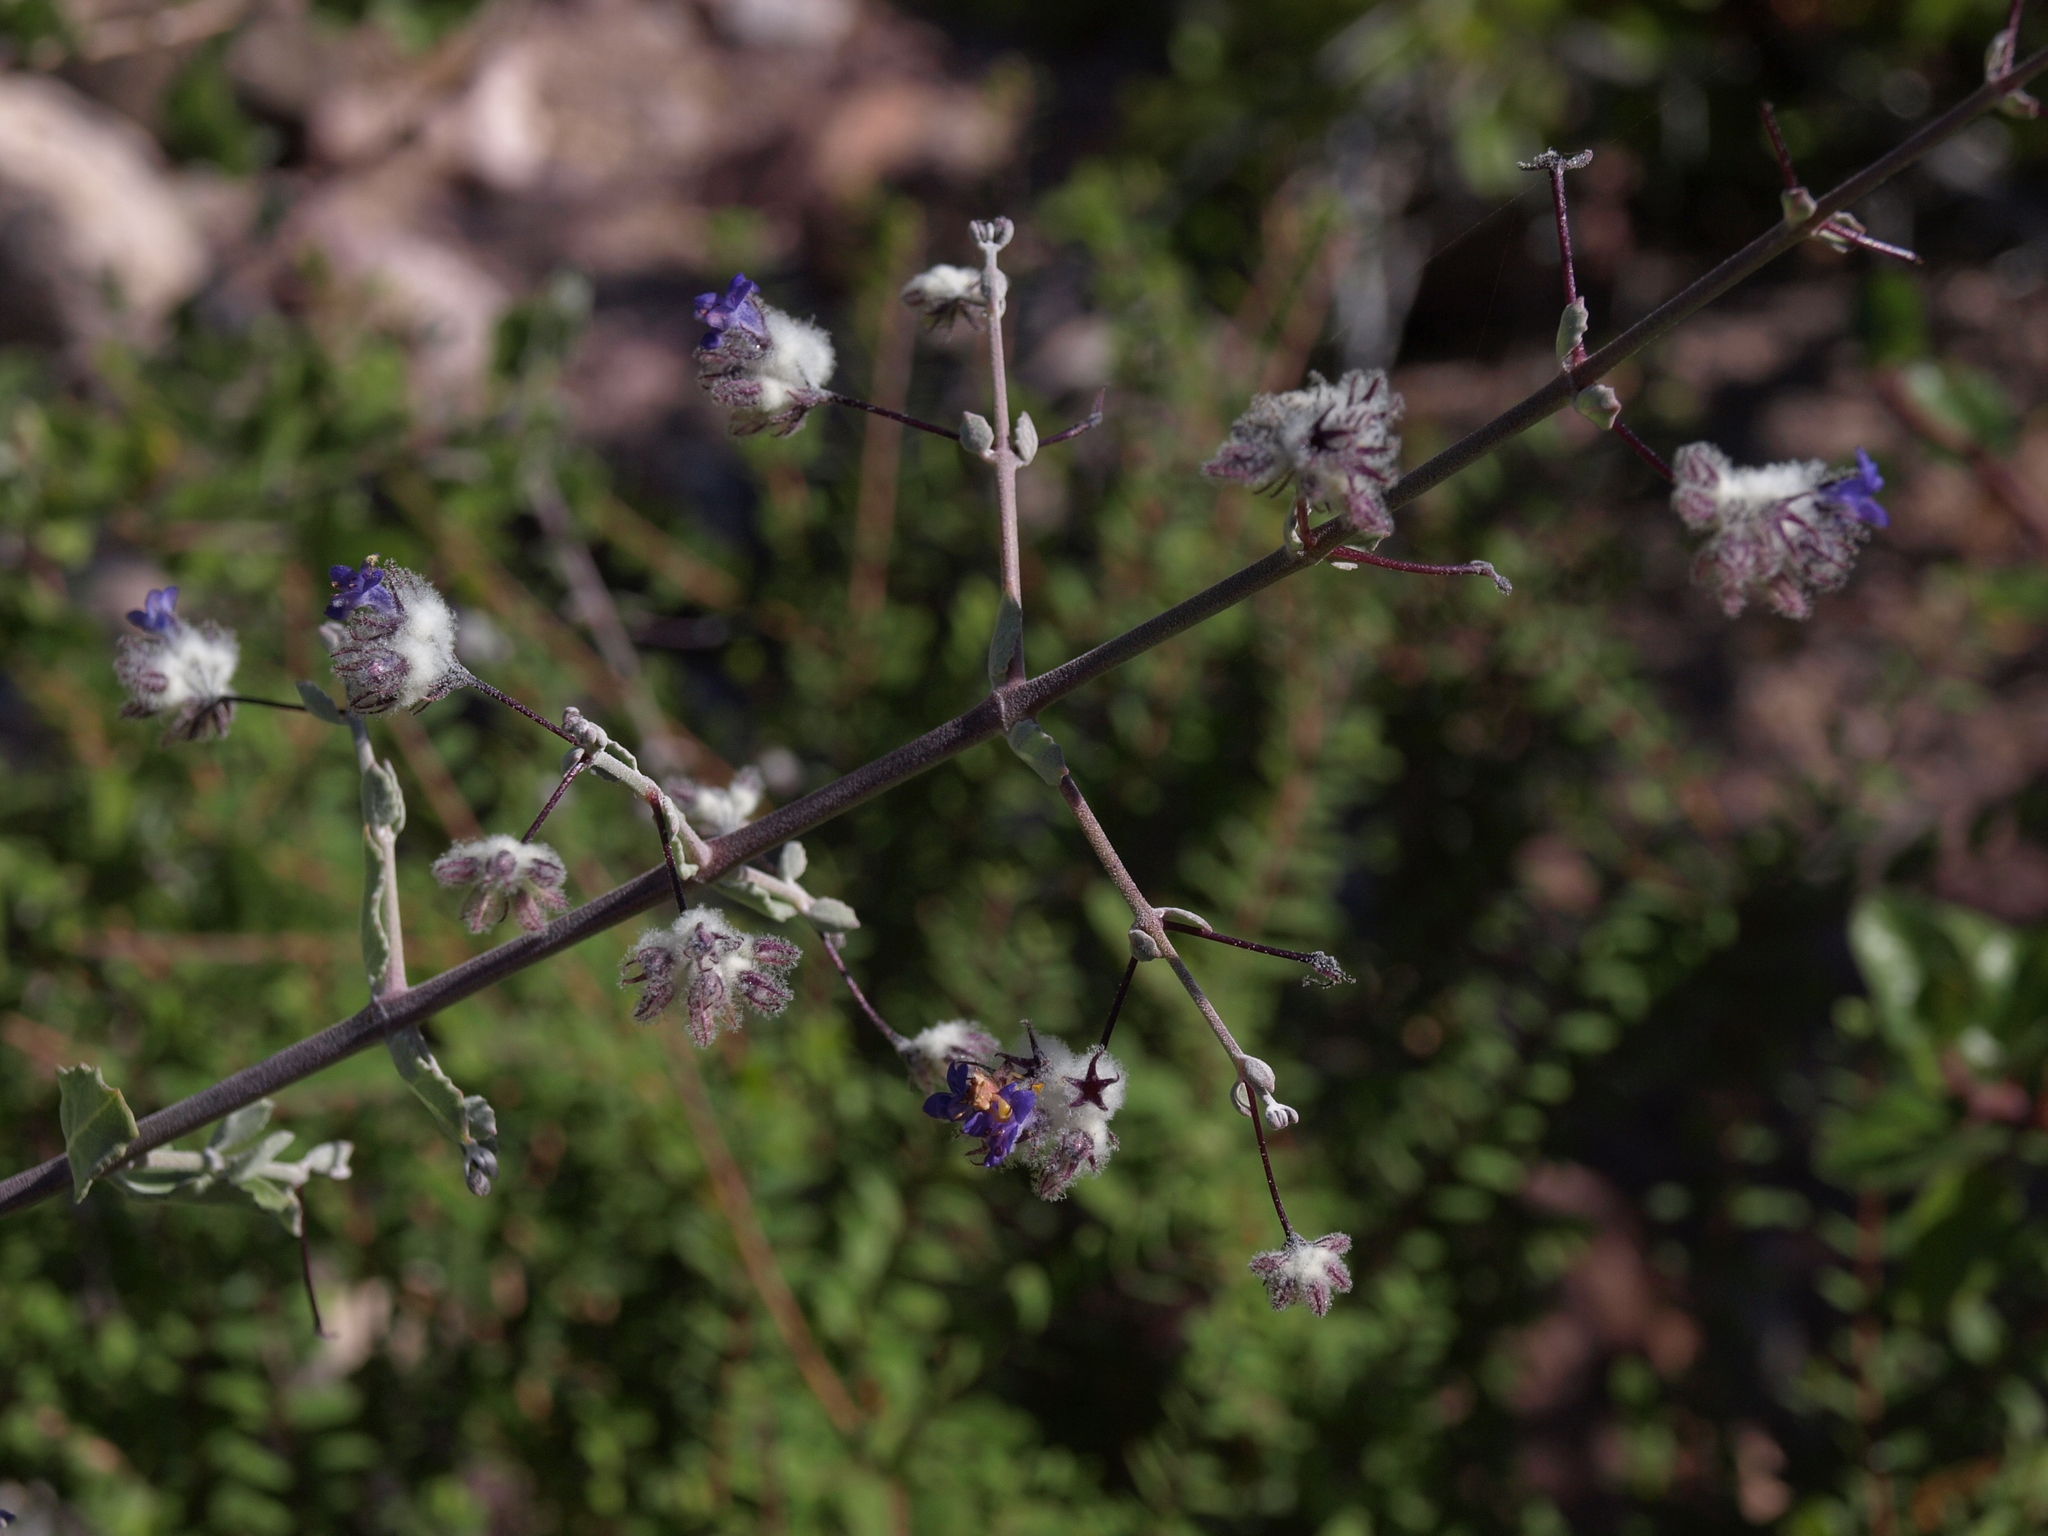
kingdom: Plantae
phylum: Tracheophyta
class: Magnoliopsida
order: Lamiales
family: Lamiaceae
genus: Condea
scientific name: Condea laniflora
